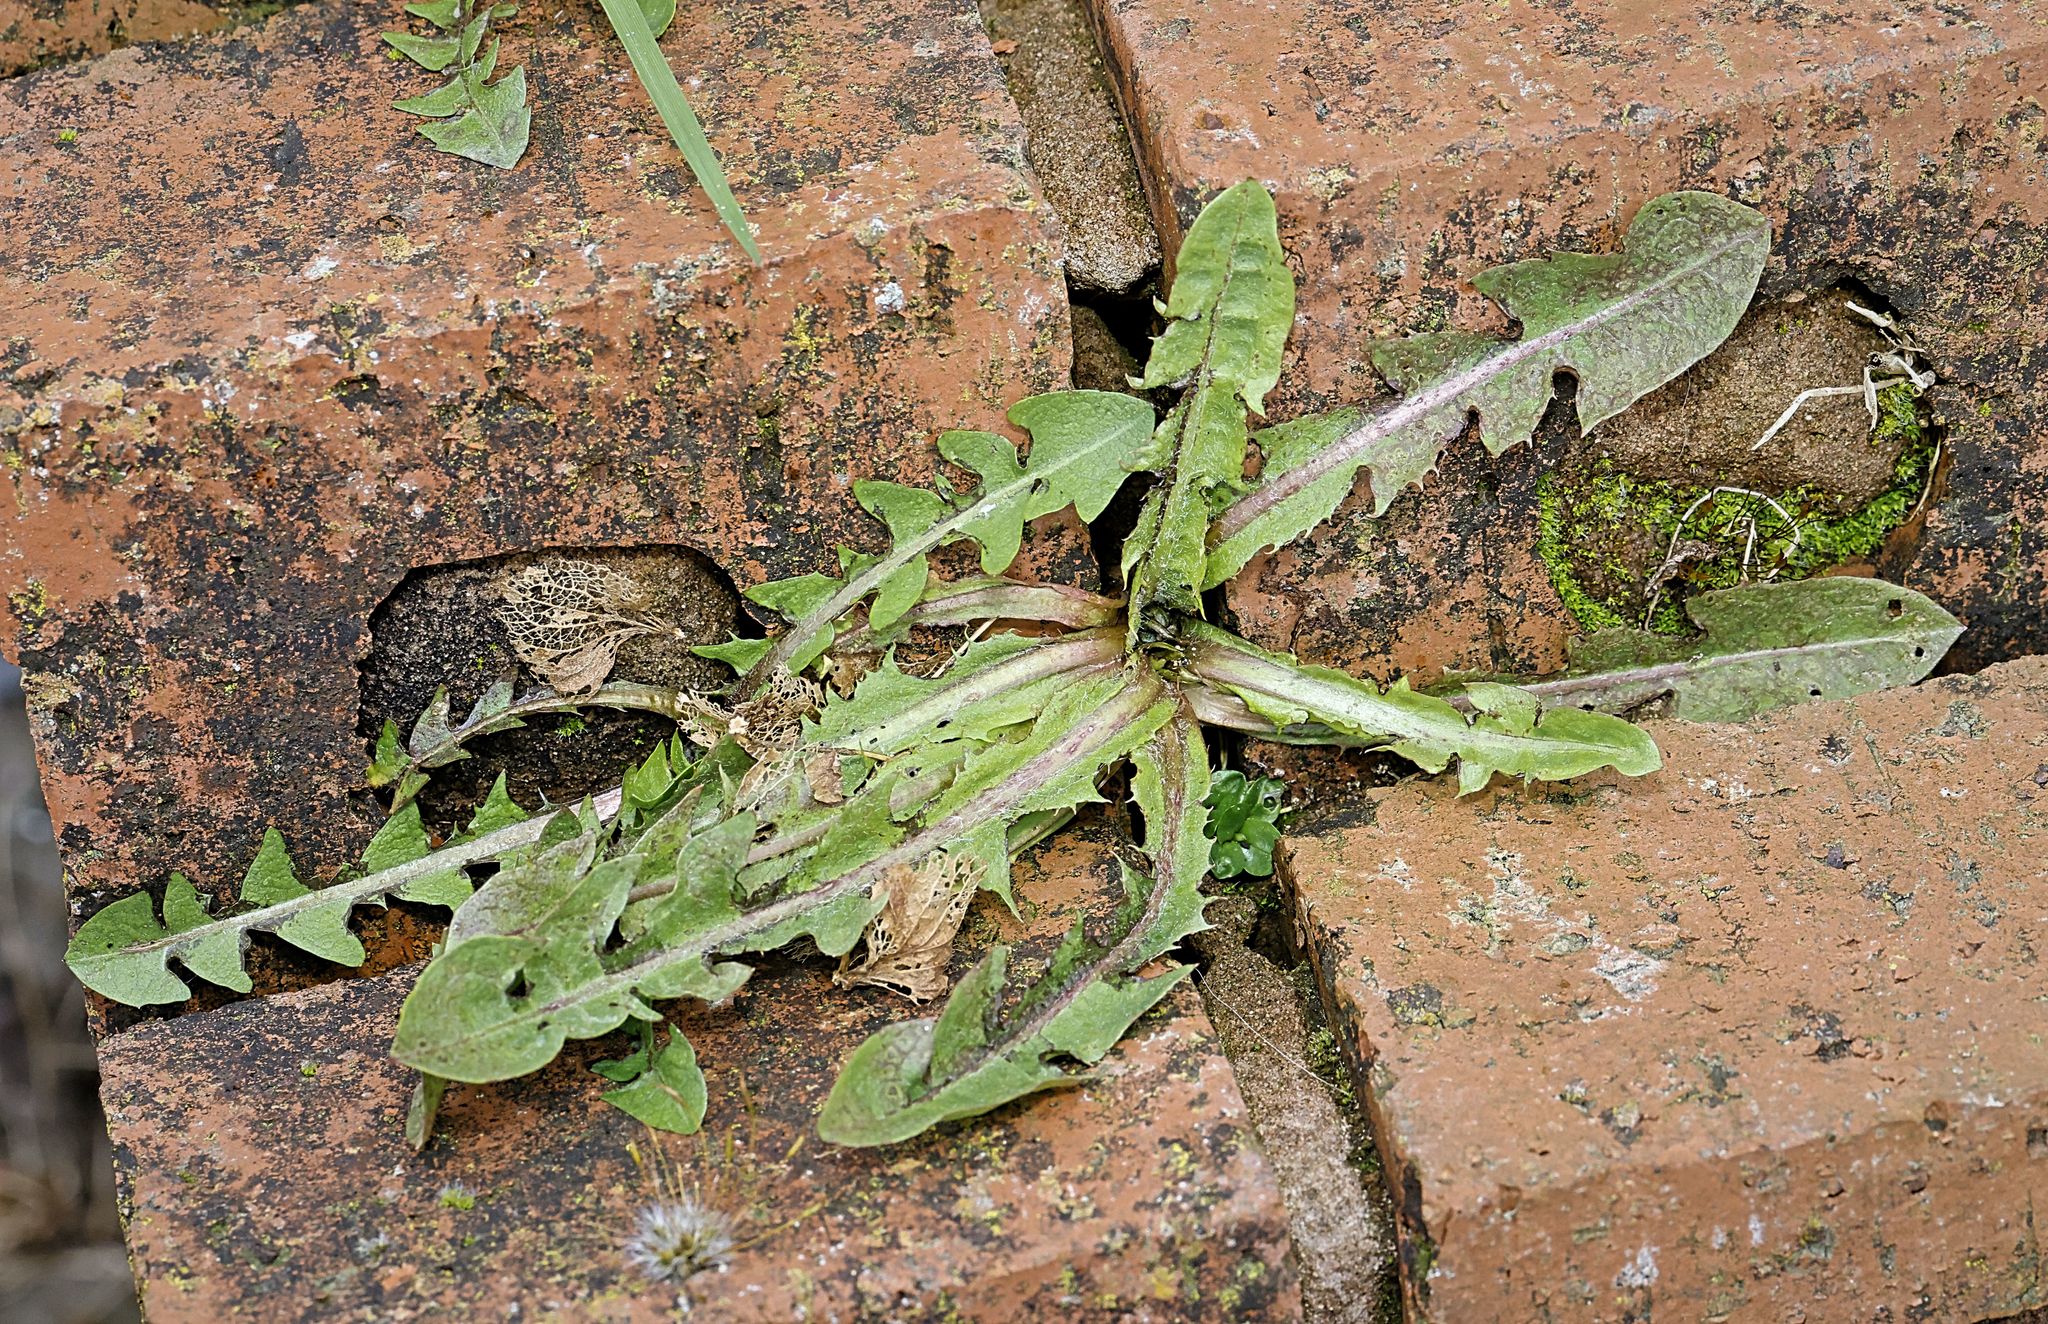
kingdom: Plantae
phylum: Tracheophyta
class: Magnoliopsida
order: Asterales
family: Asteraceae
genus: Taraxacum
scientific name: Taraxacum officinale
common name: Common dandelion
